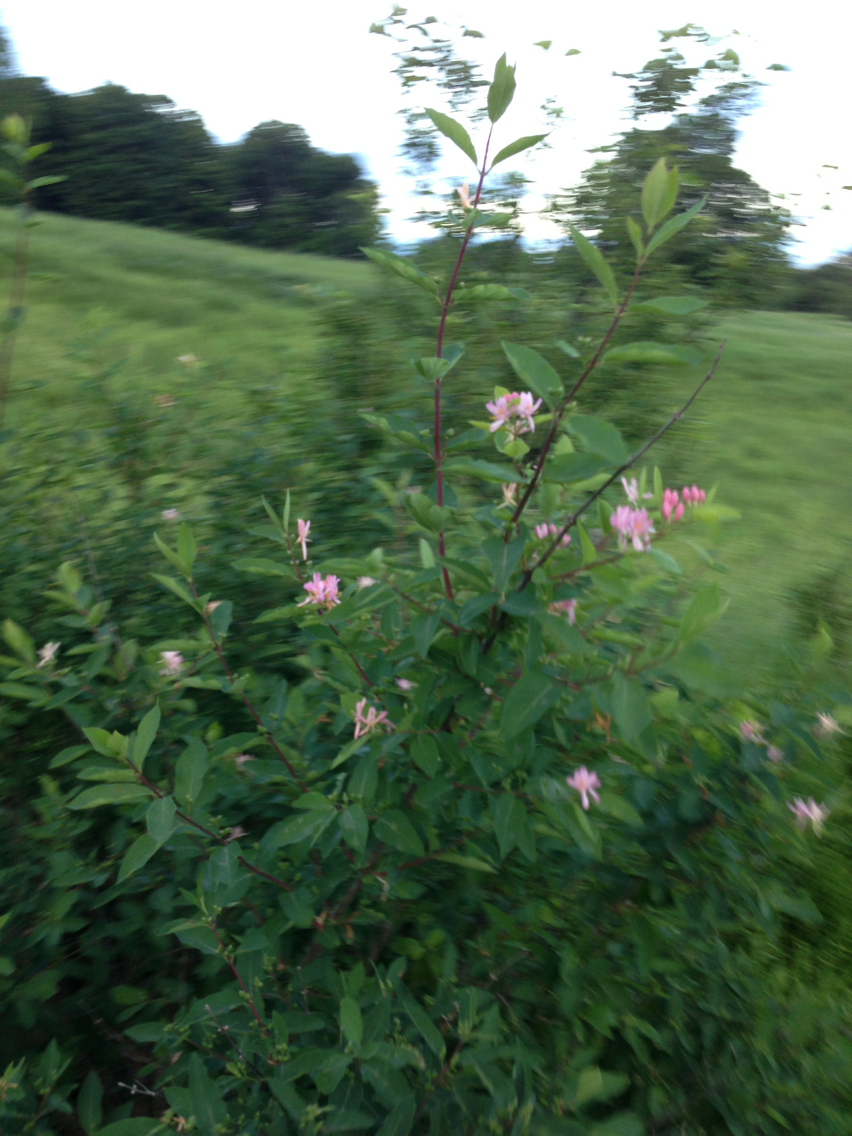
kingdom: Plantae
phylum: Tracheophyta
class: Magnoliopsida
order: Dipsacales
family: Caprifoliaceae
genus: Lonicera
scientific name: Lonicera tatarica
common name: Tatarian honeysuckle
